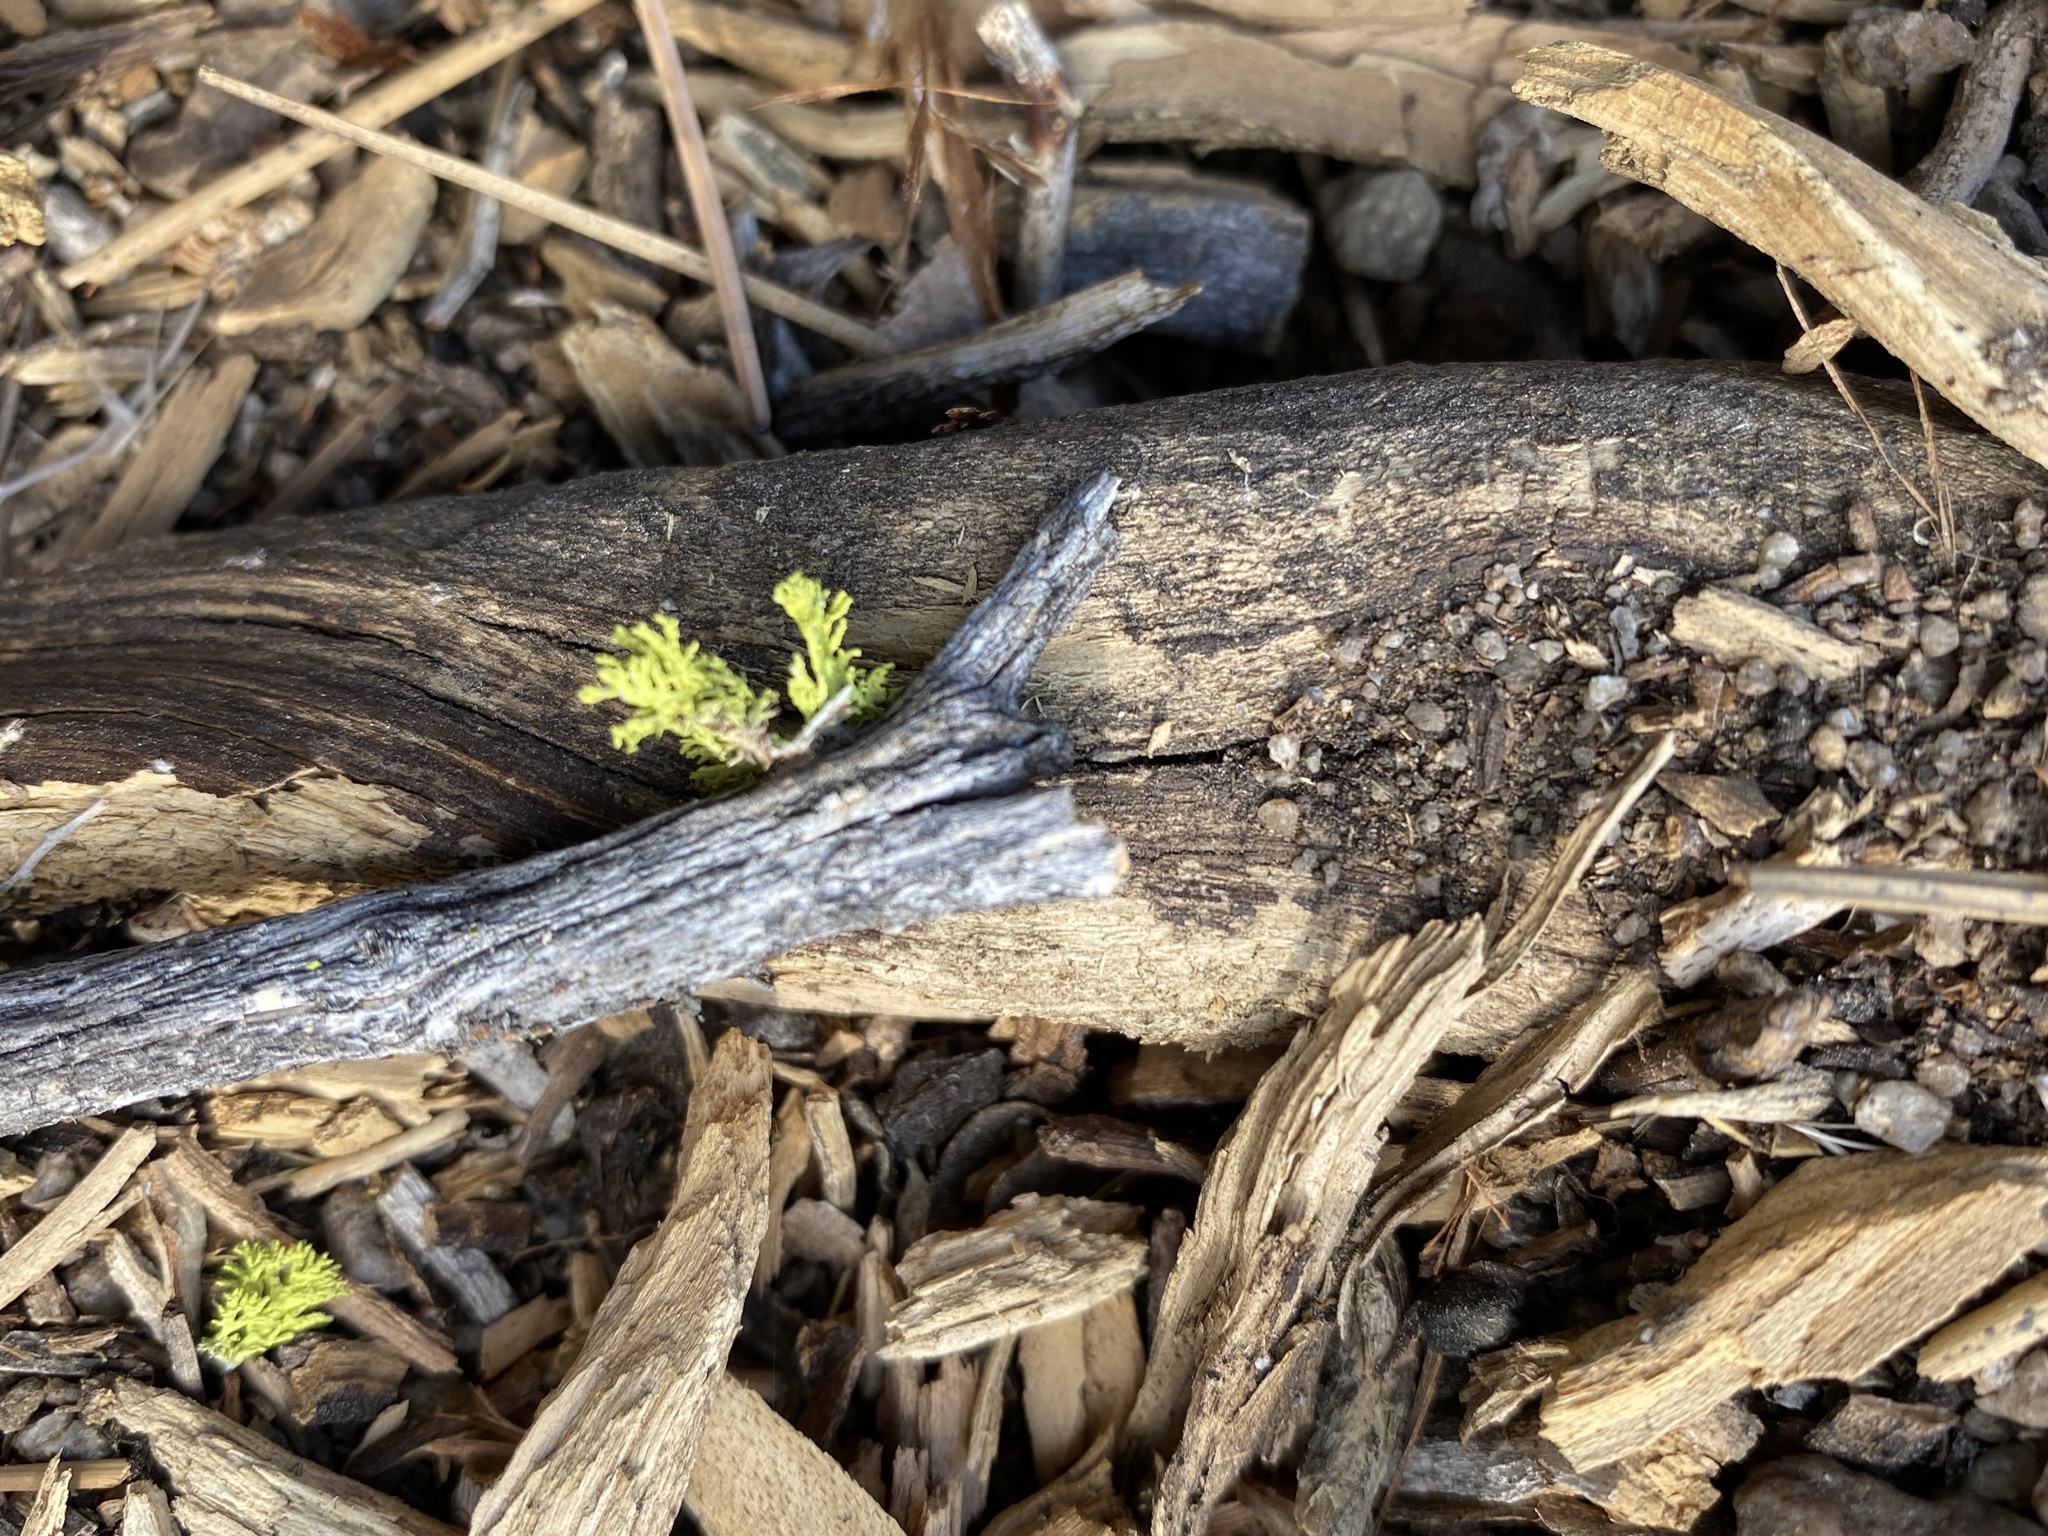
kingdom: Fungi
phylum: Ascomycota
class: Lecanoromycetes
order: Lecanorales
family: Parmeliaceae
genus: Letharia
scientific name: Letharia vulpina
